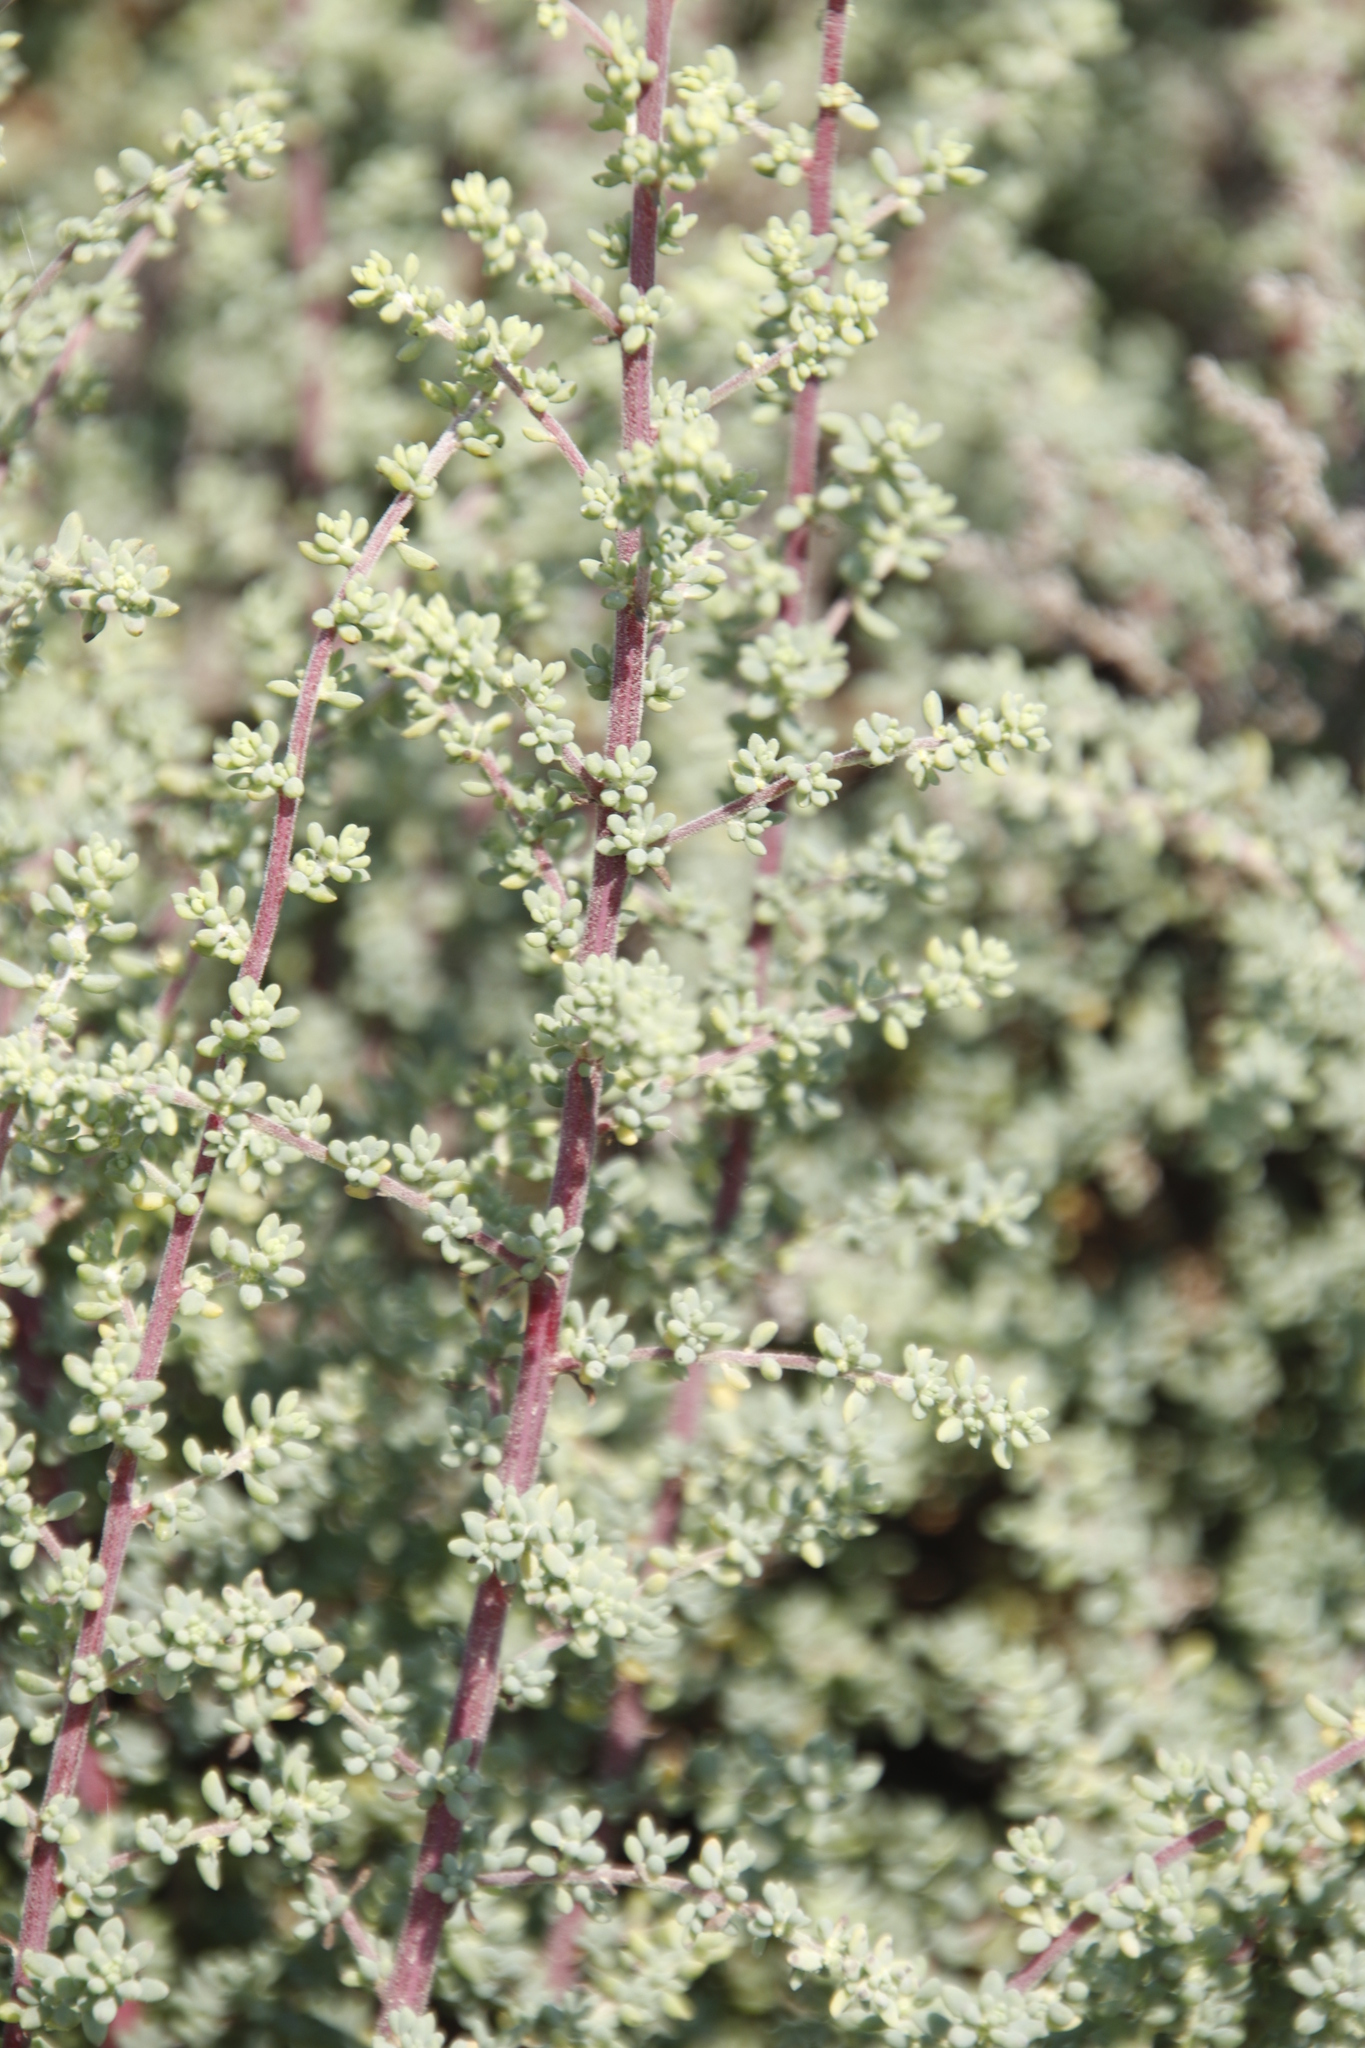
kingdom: Plantae
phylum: Tracheophyta
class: Magnoliopsida
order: Asterales
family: Asteraceae
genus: Seriphium
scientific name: Seriphium plumosum
